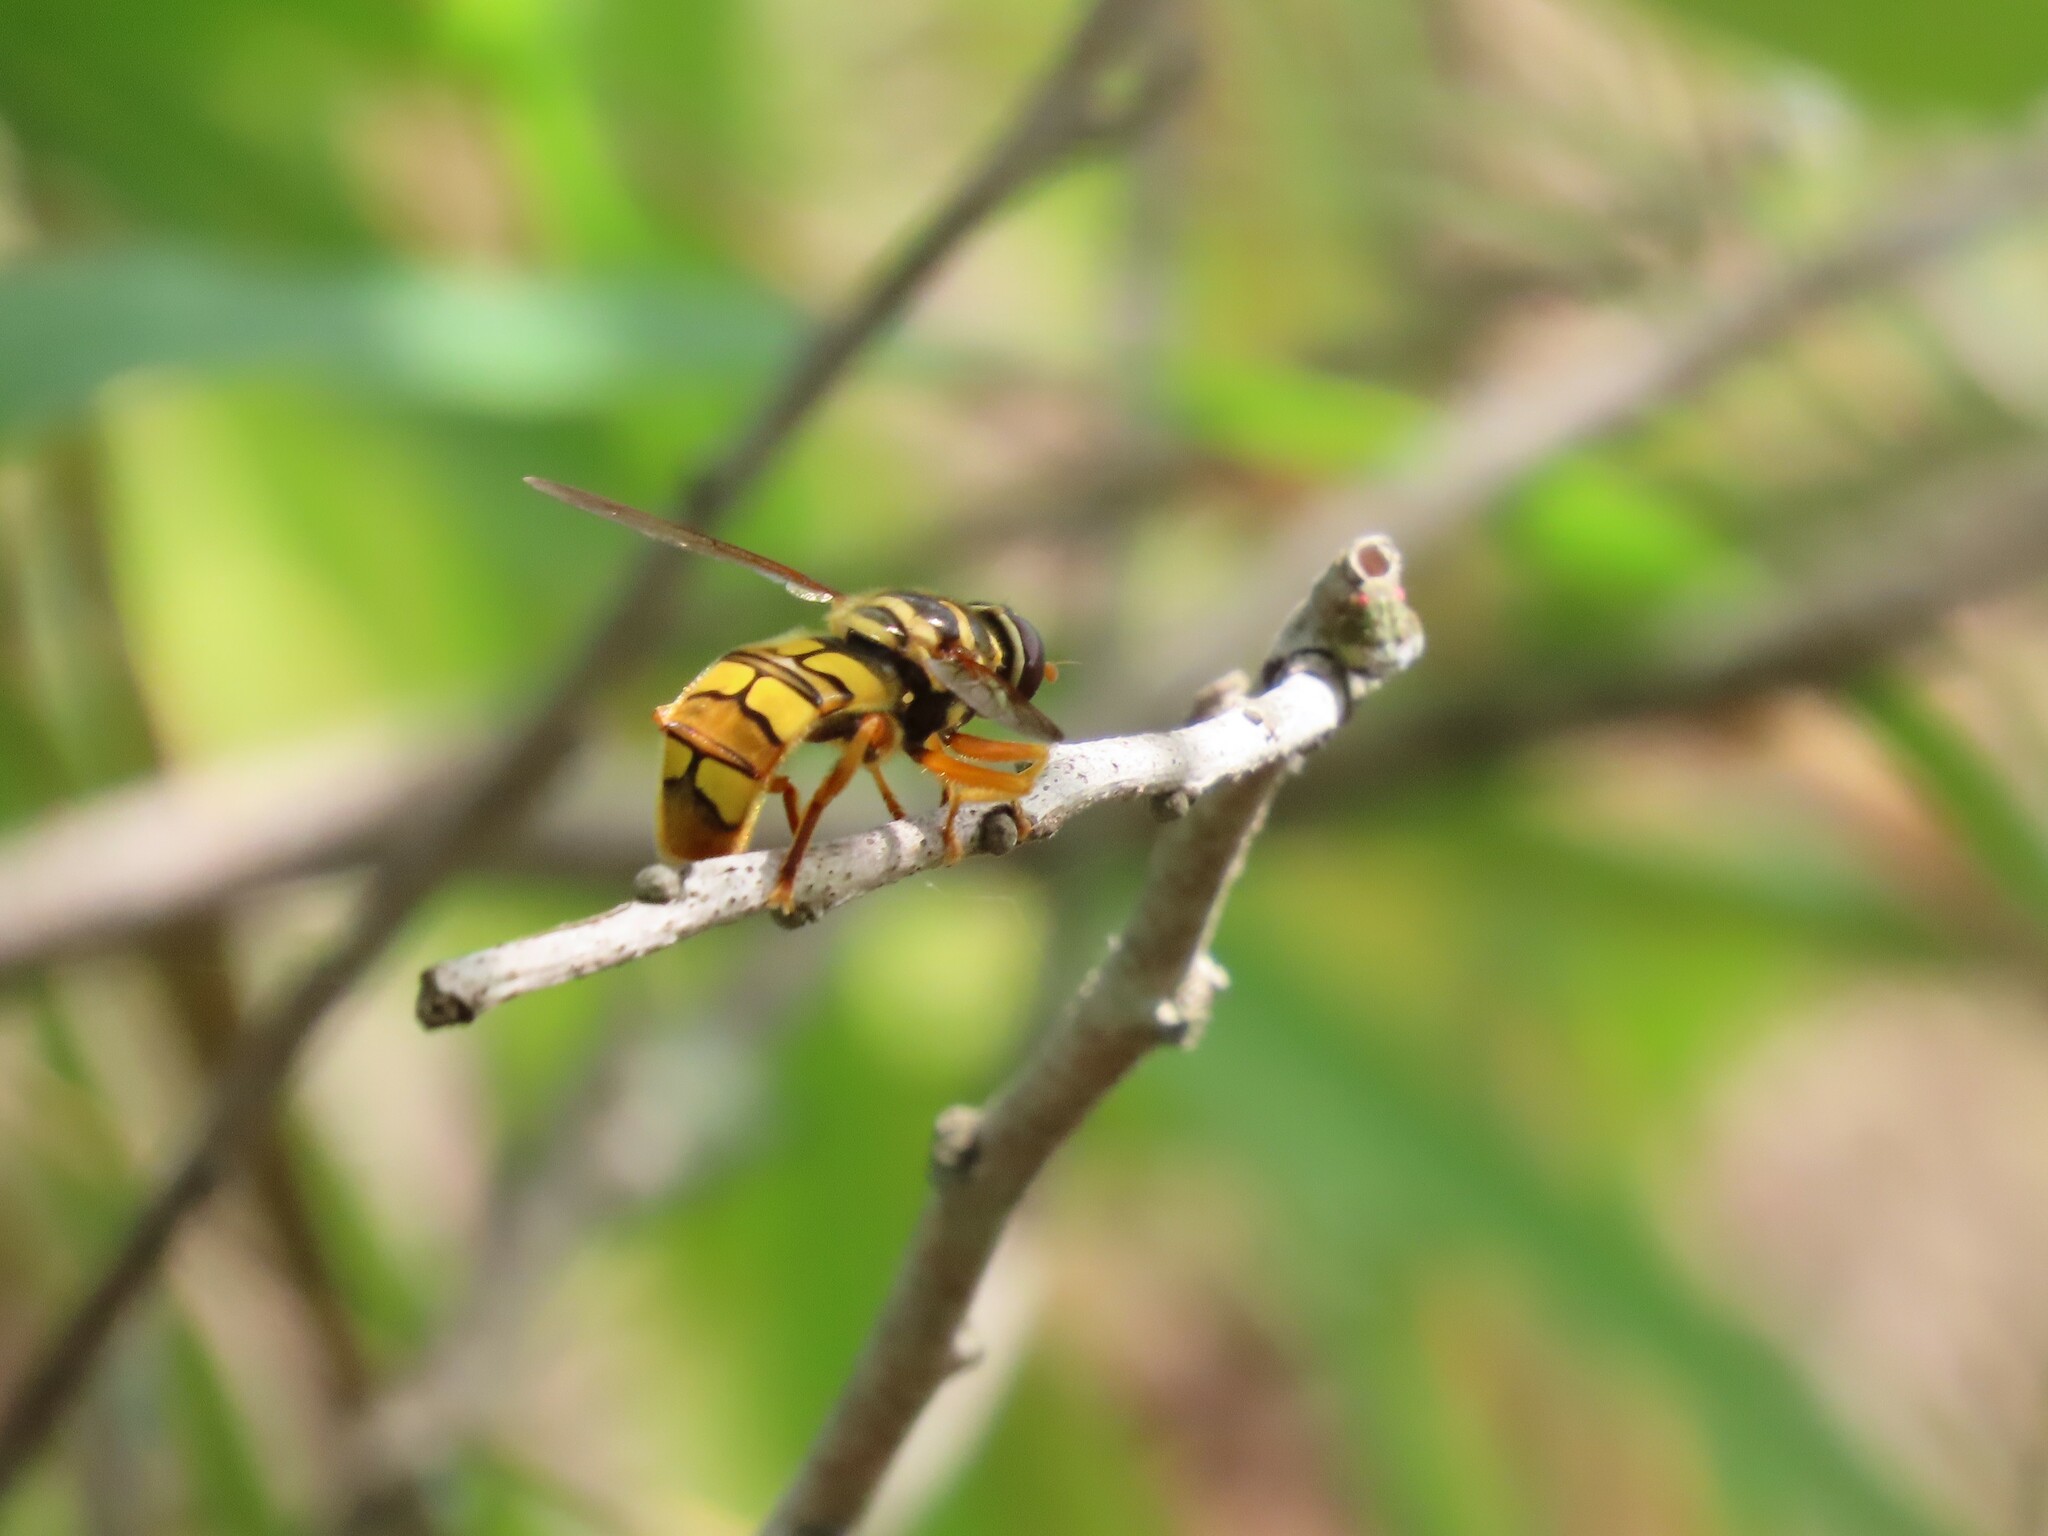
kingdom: Animalia
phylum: Arthropoda
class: Insecta
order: Diptera
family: Syrphidae
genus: Milesia
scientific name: Milesia virginiensis
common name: Virginia giant
